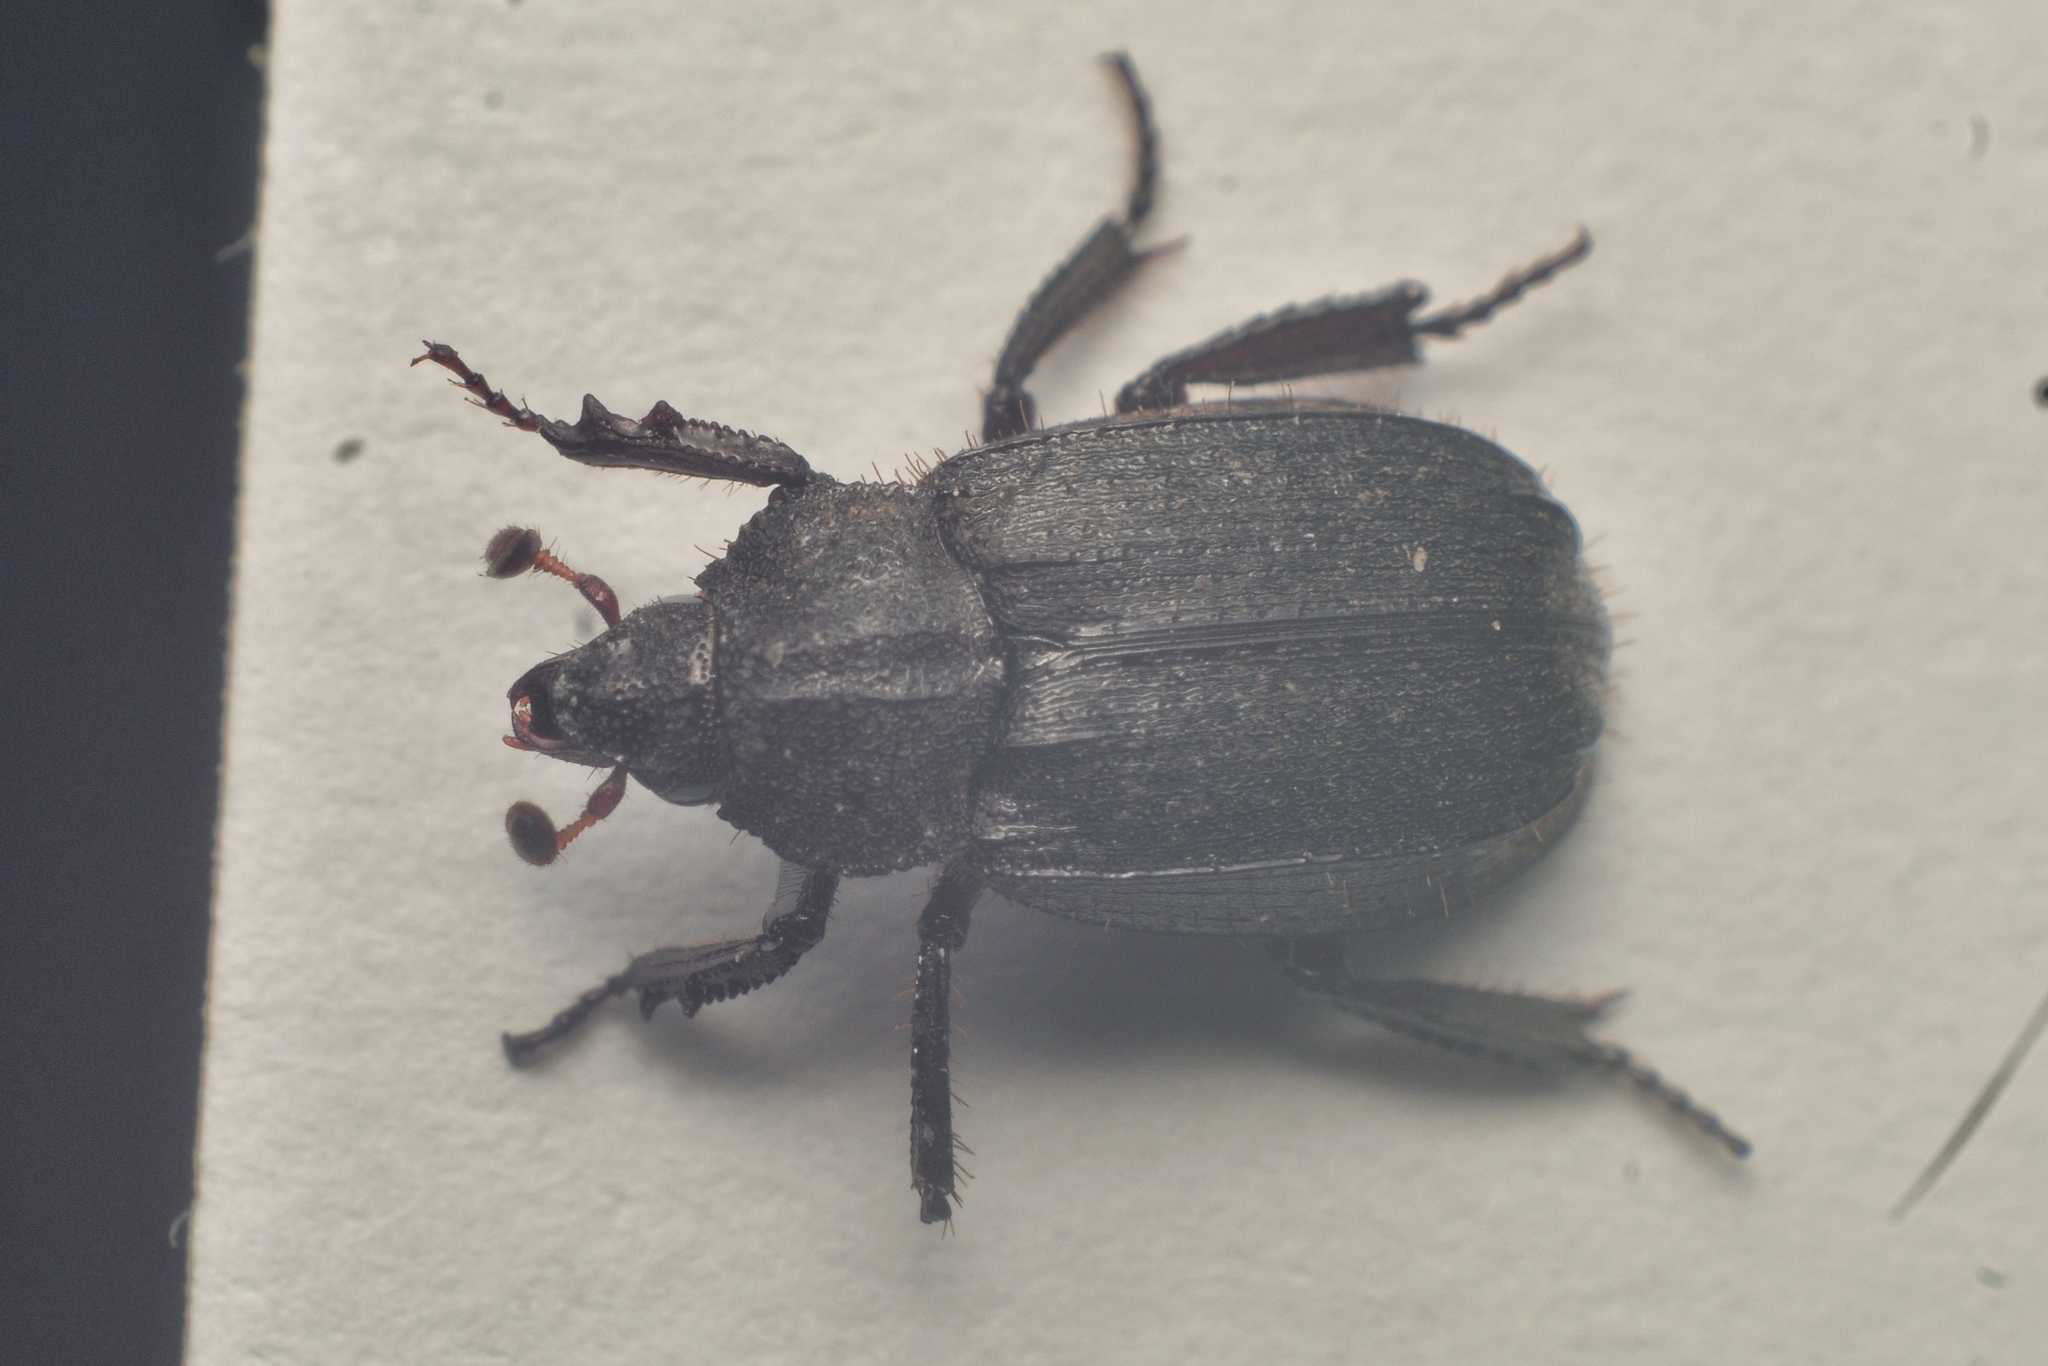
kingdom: Animalia
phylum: Arthropoda
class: Insecta
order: Coleoptera
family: Hybosoridae
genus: Anaides
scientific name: Anaides fossulatus
